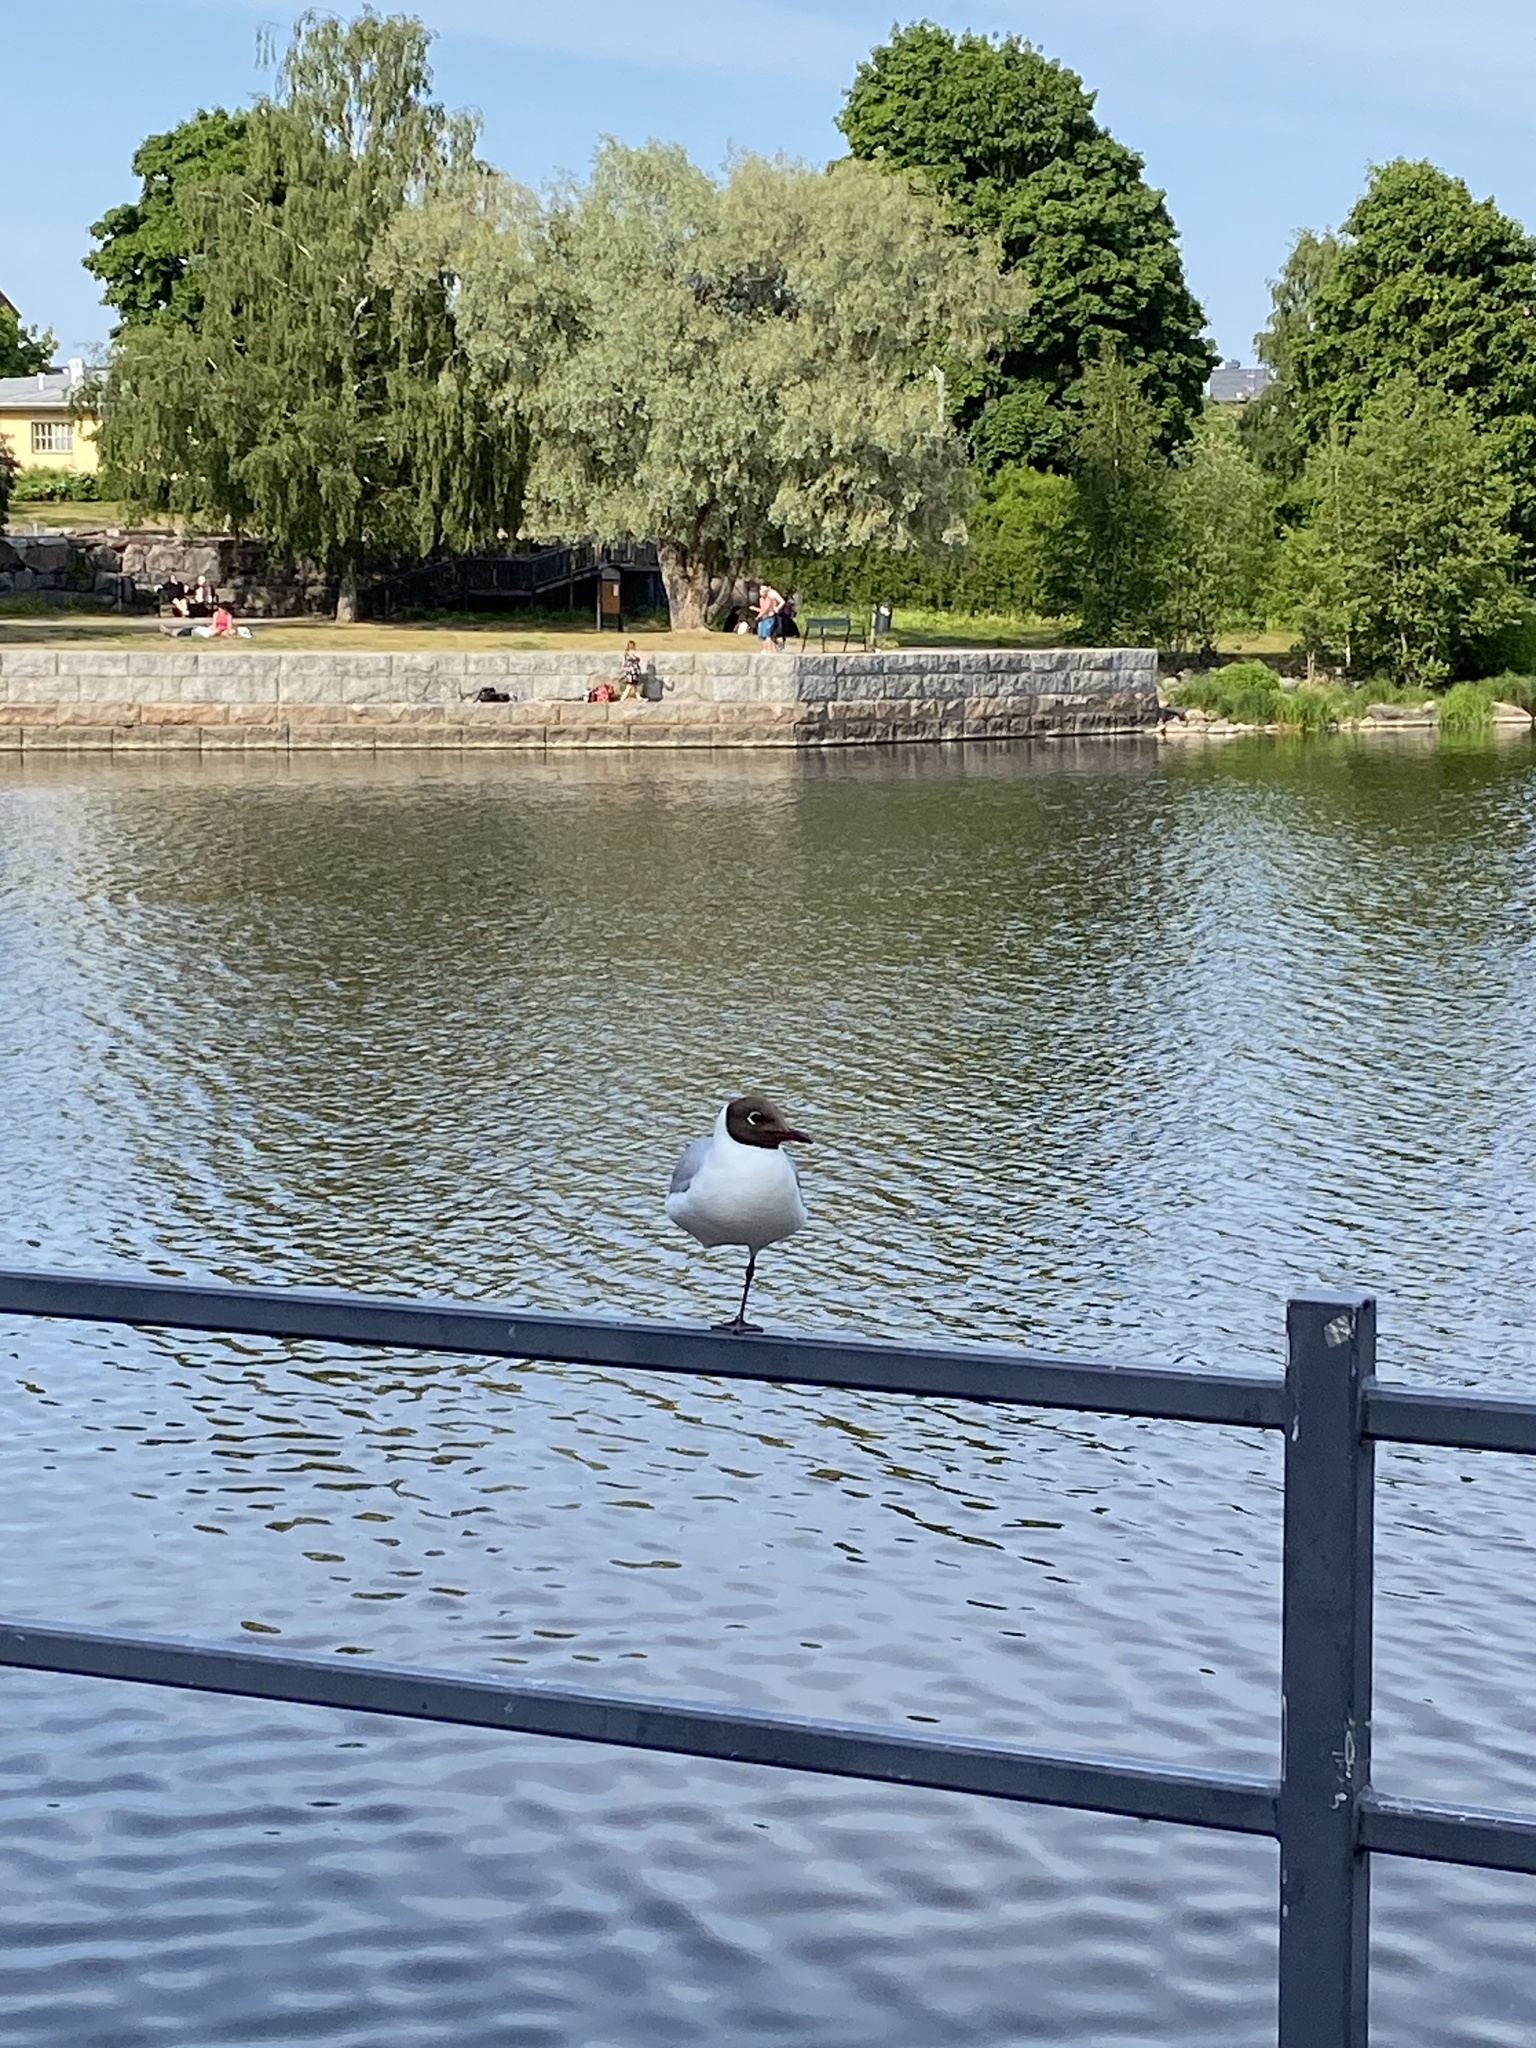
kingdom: Animalia
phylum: Chordata
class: Aves
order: Charadriiformes
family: Laridae
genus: Chroicocephalus
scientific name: Chroicocephalus ridibundus
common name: Black-headed gull
